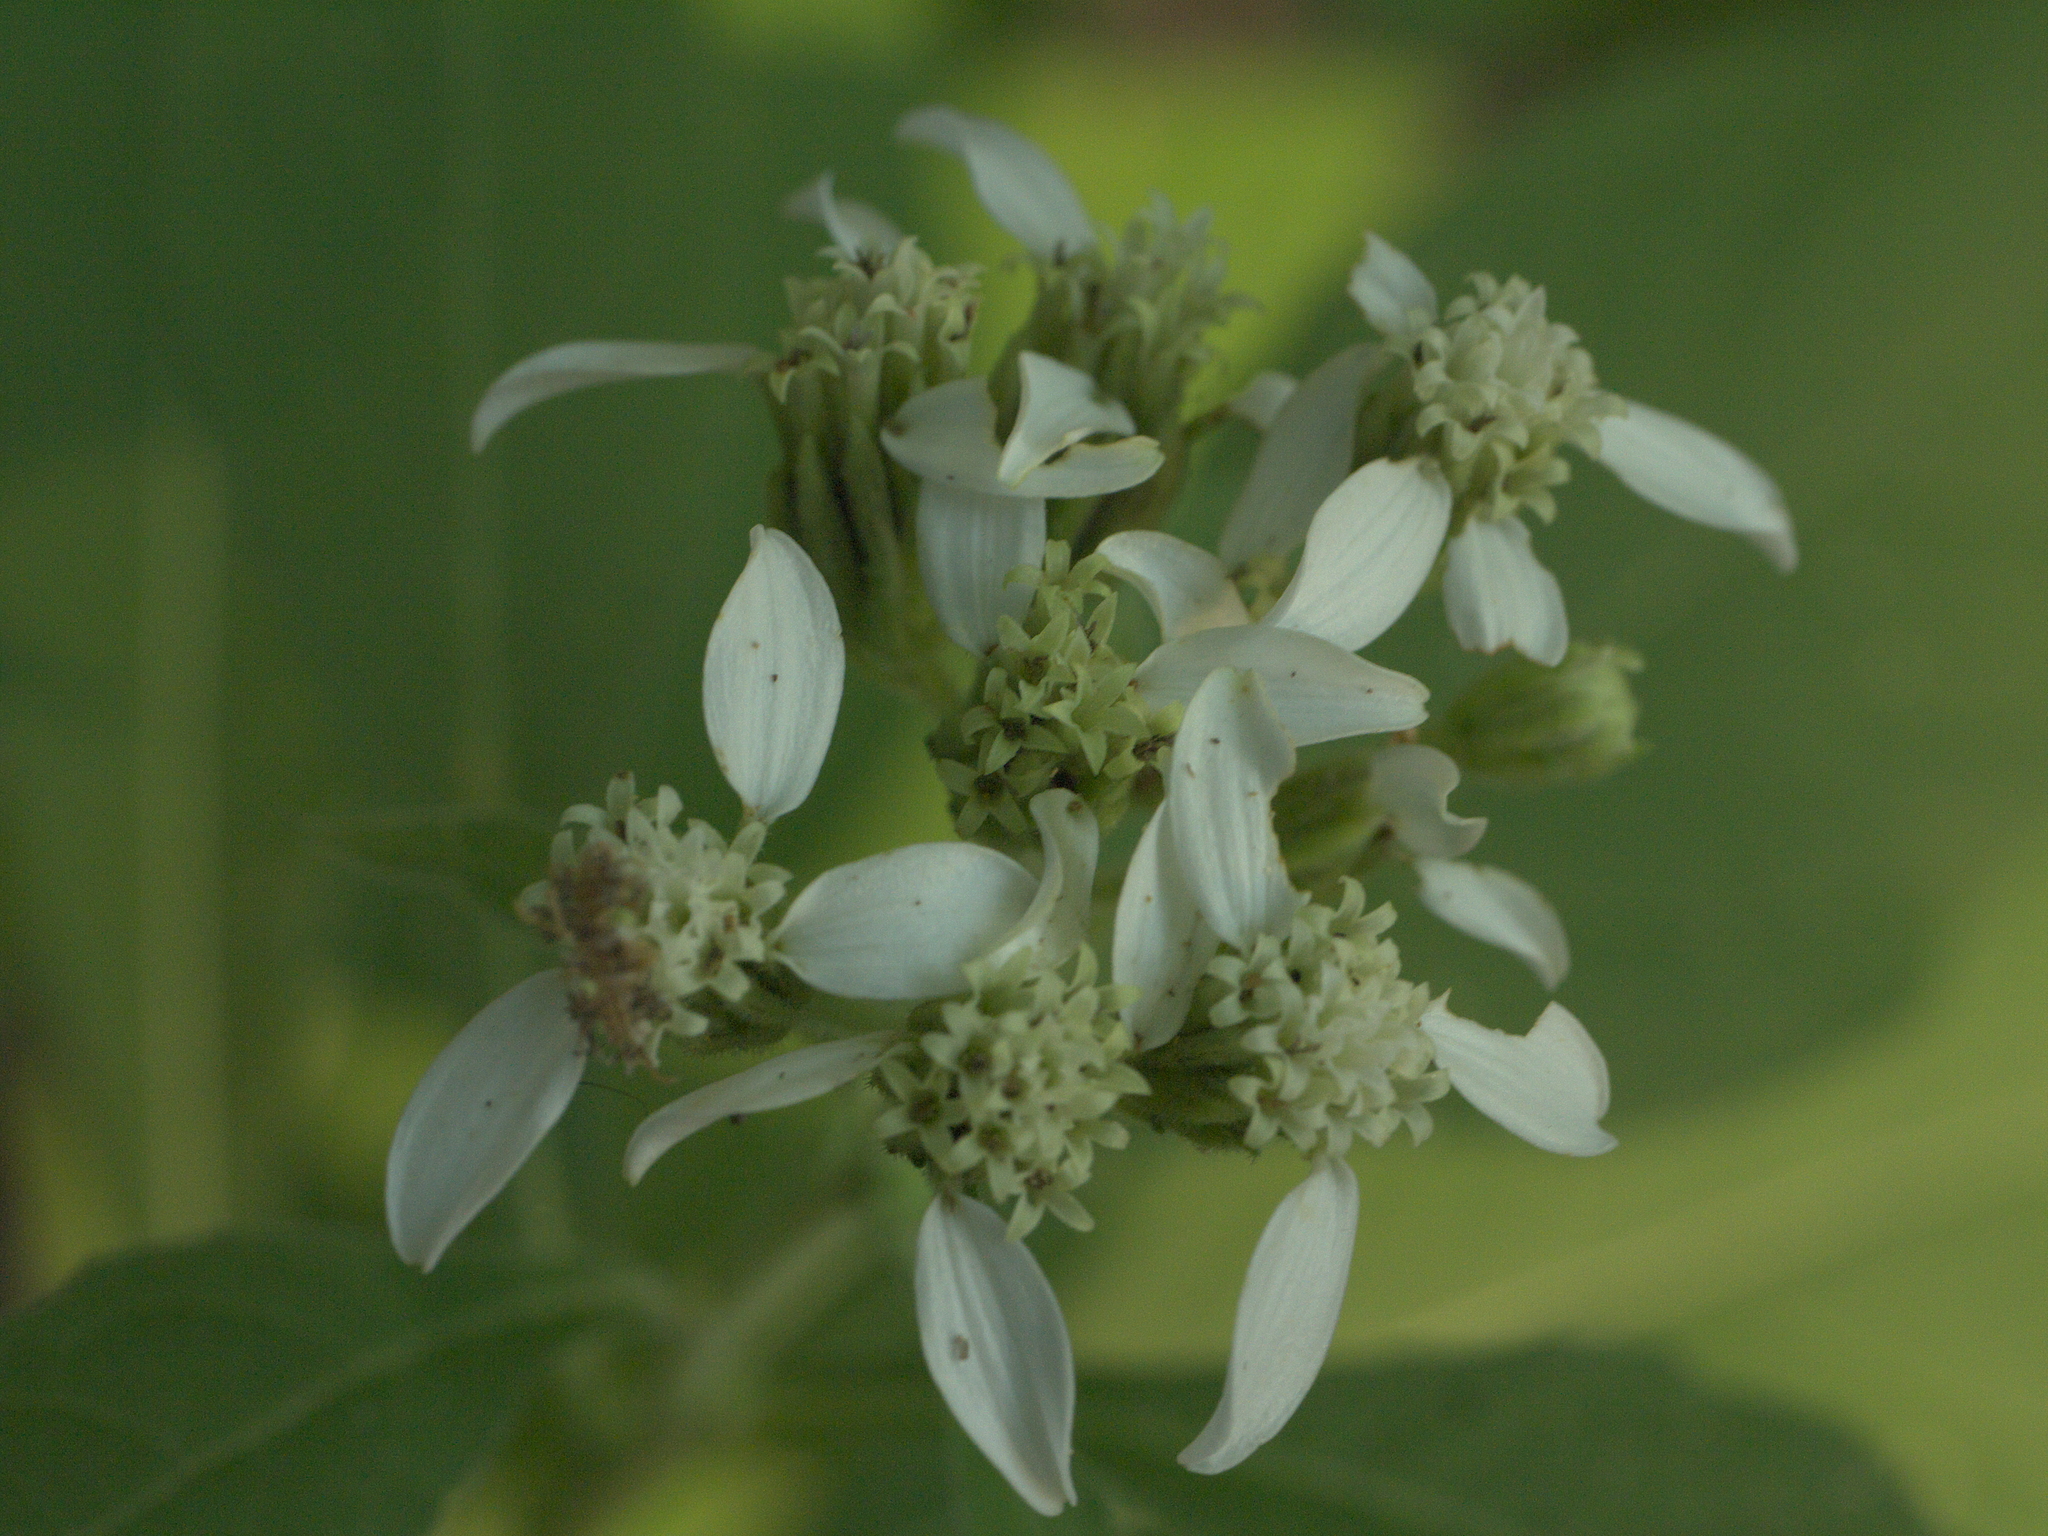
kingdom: Plantae
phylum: Tracheophyta
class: Magnoliopsida
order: Asterales
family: Asteraceae
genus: Verbesina
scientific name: Verbesina virginica
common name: Frostweed
